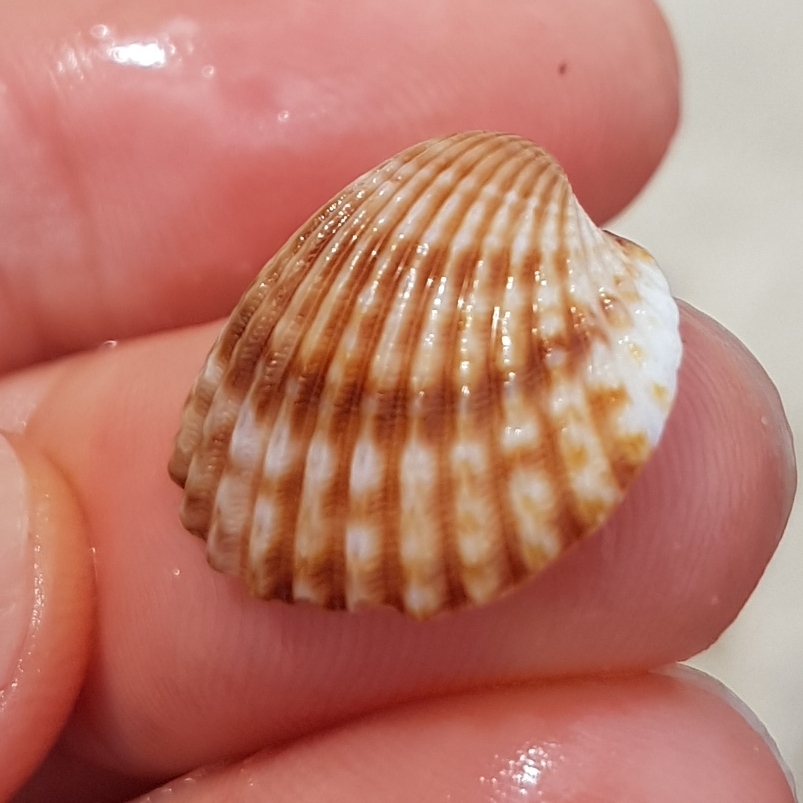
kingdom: Animalia
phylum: Mollusca
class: Bivalvia
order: Cardiida
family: Cardiidae
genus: Acanthocardia
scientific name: Acanthocardia tuberculata
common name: Rough cockle
